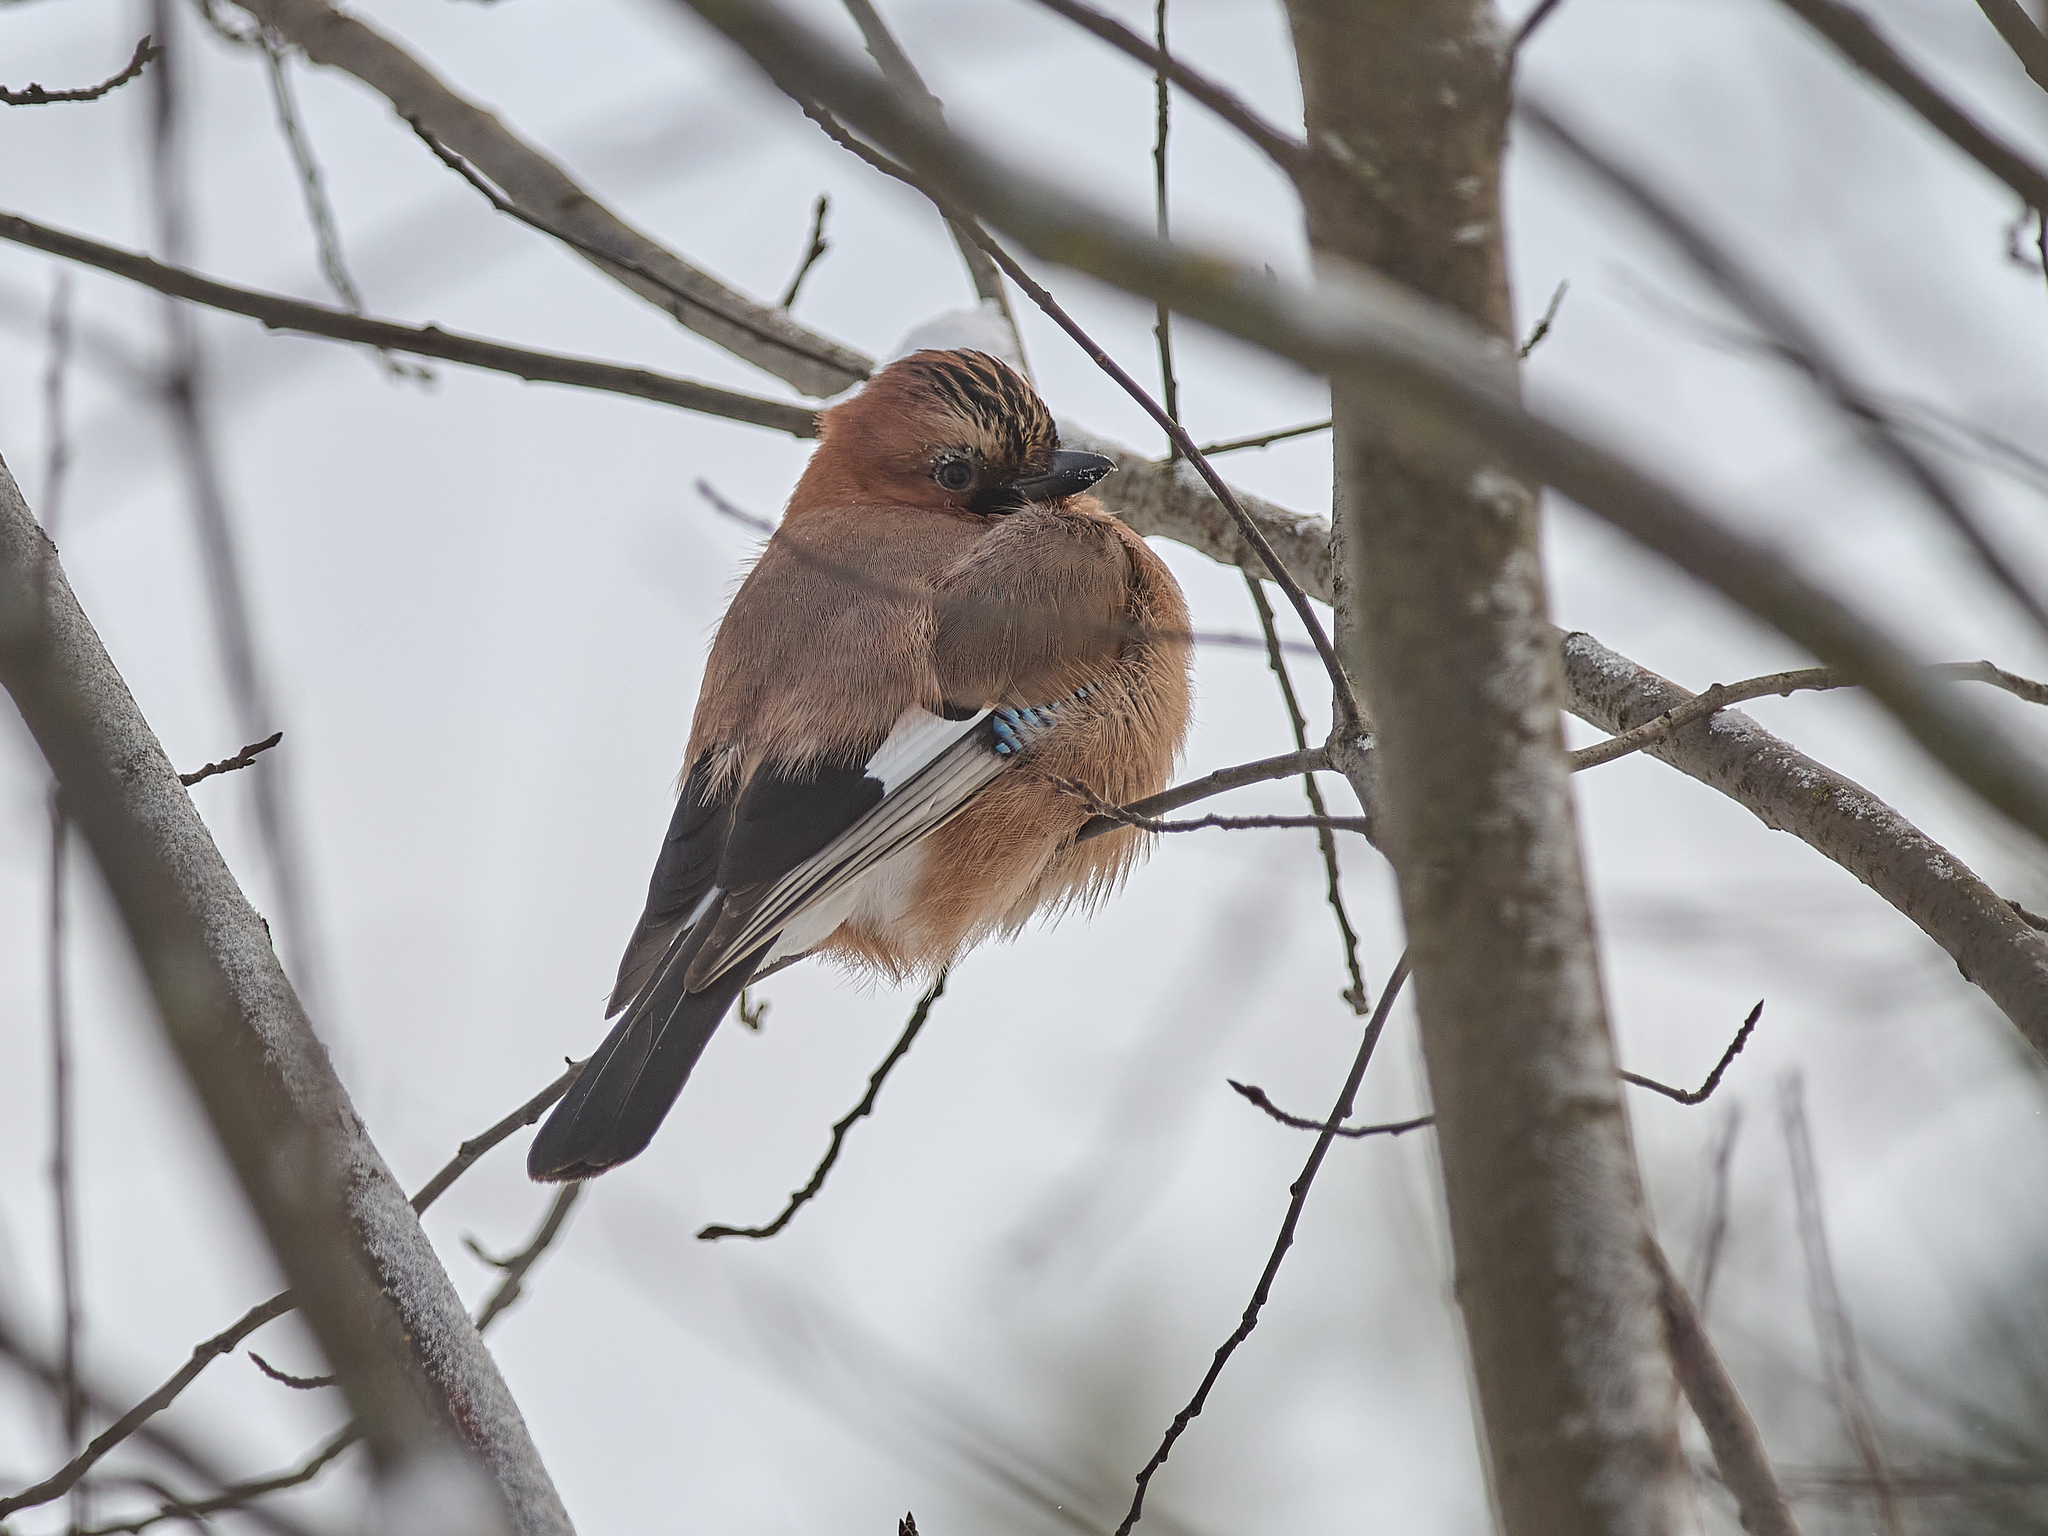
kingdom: Animalia
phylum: Chordata
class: Aves
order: Passeriformes
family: Corvidae
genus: Garrulus
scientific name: Garrulus glandarius
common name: Eurasian jay
